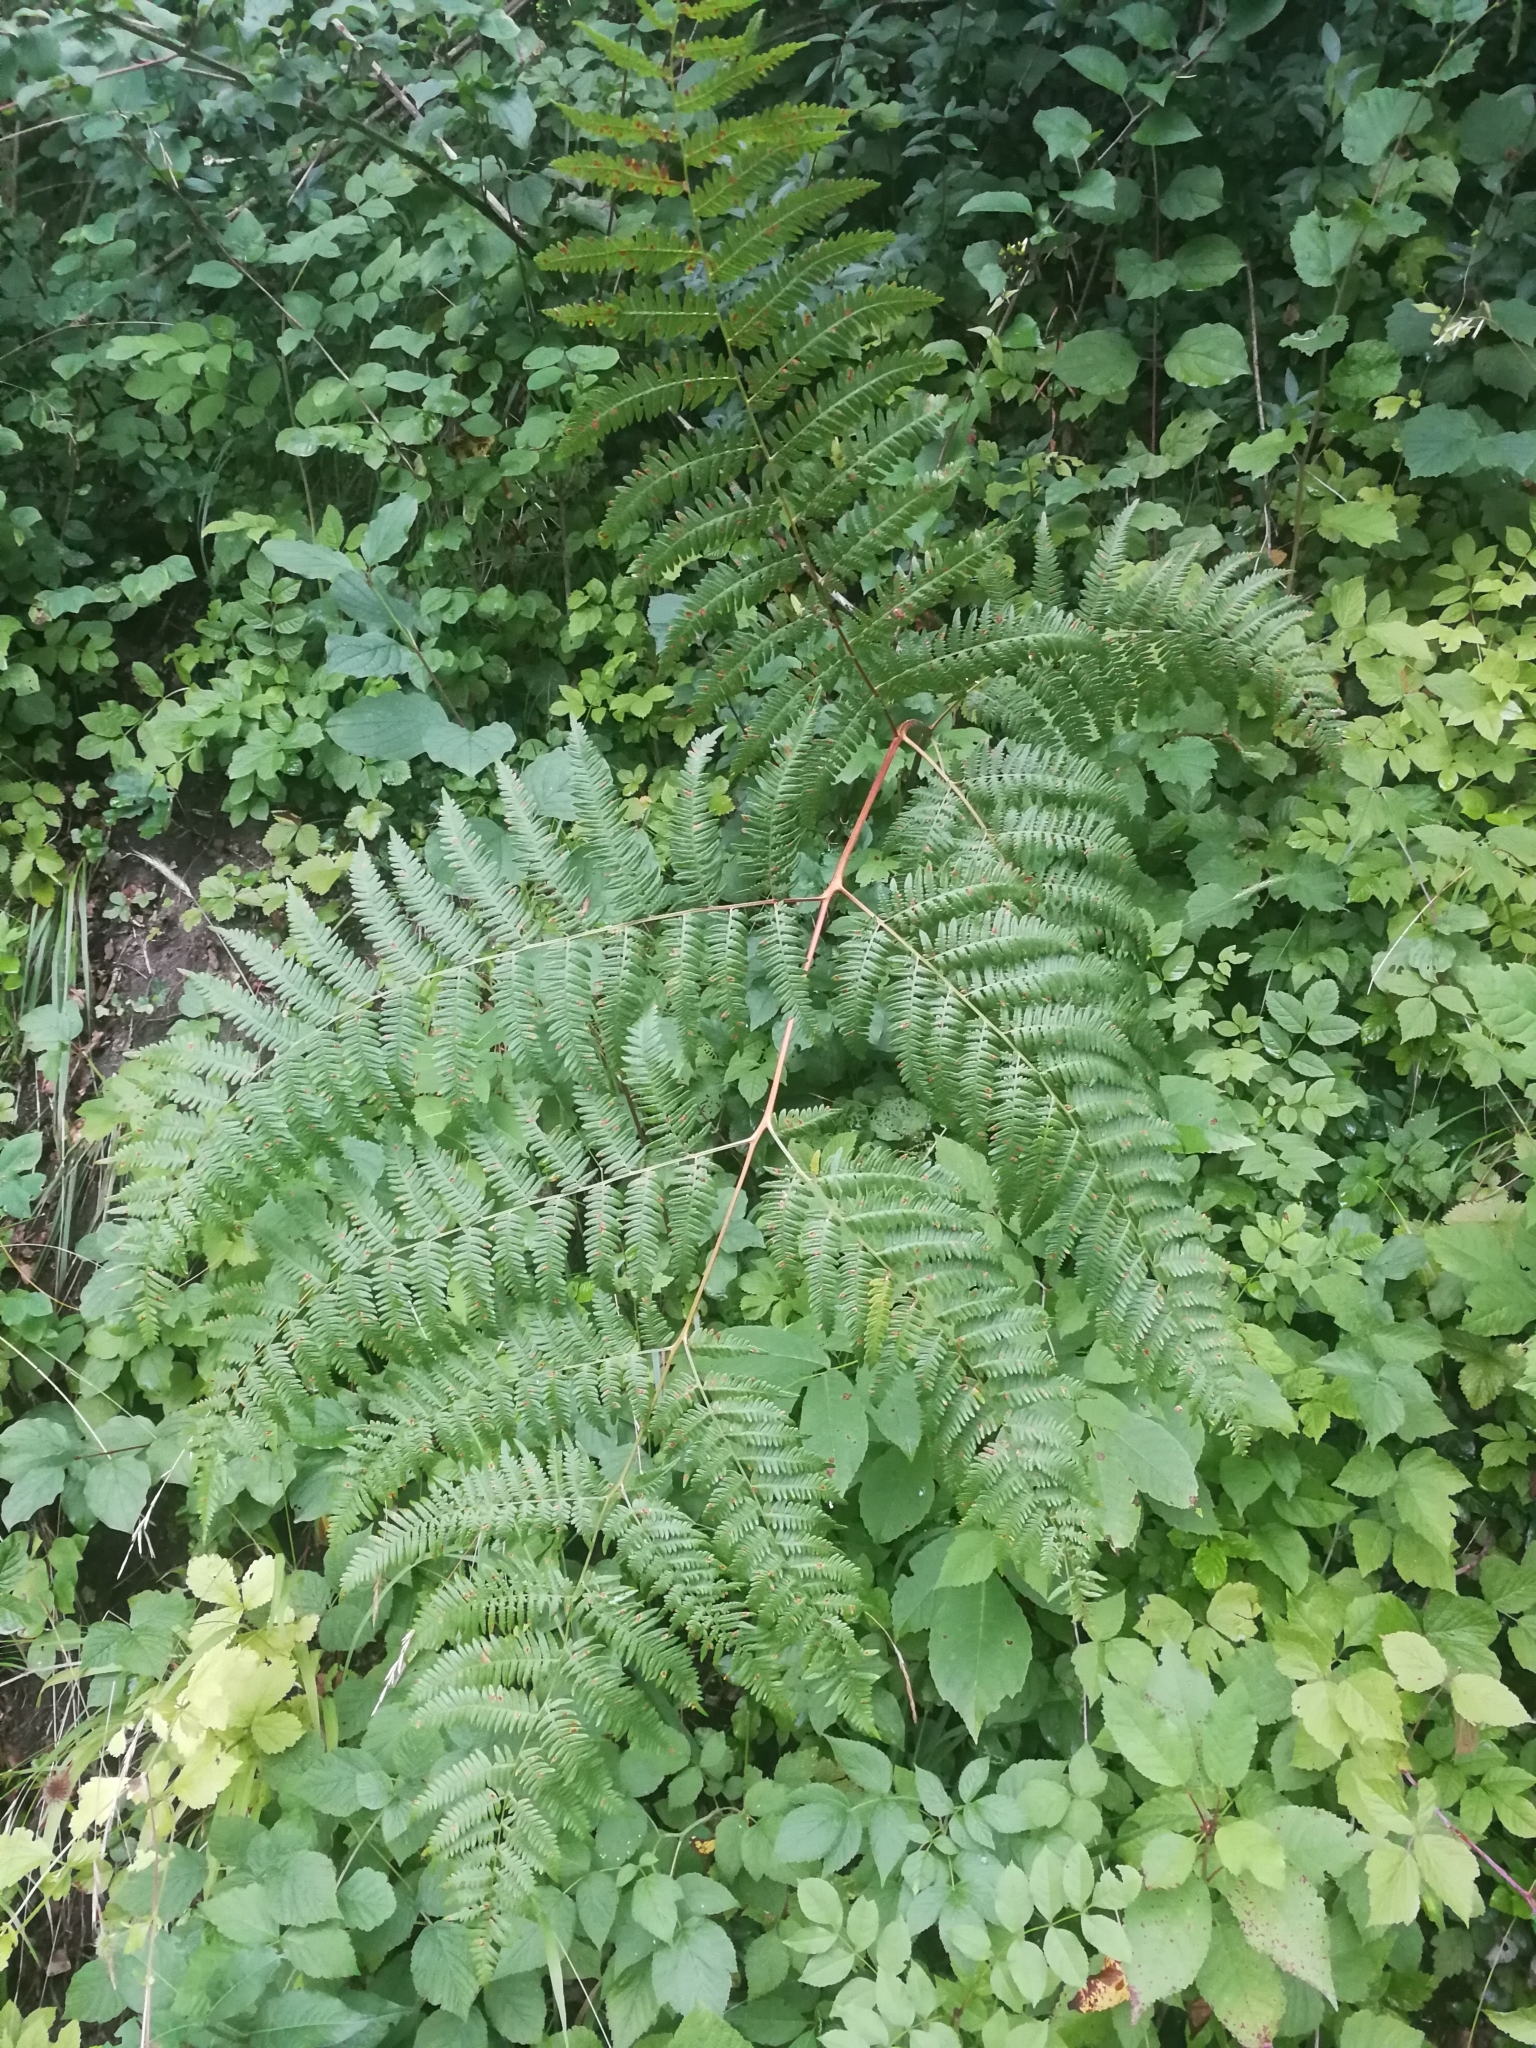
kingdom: Plantae
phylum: Tracheophyta
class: Polypodiopsida
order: Polypodiales
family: Dennstaedtiaceae
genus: Pteridium
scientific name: Pteridium aquilinum
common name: Bracken
